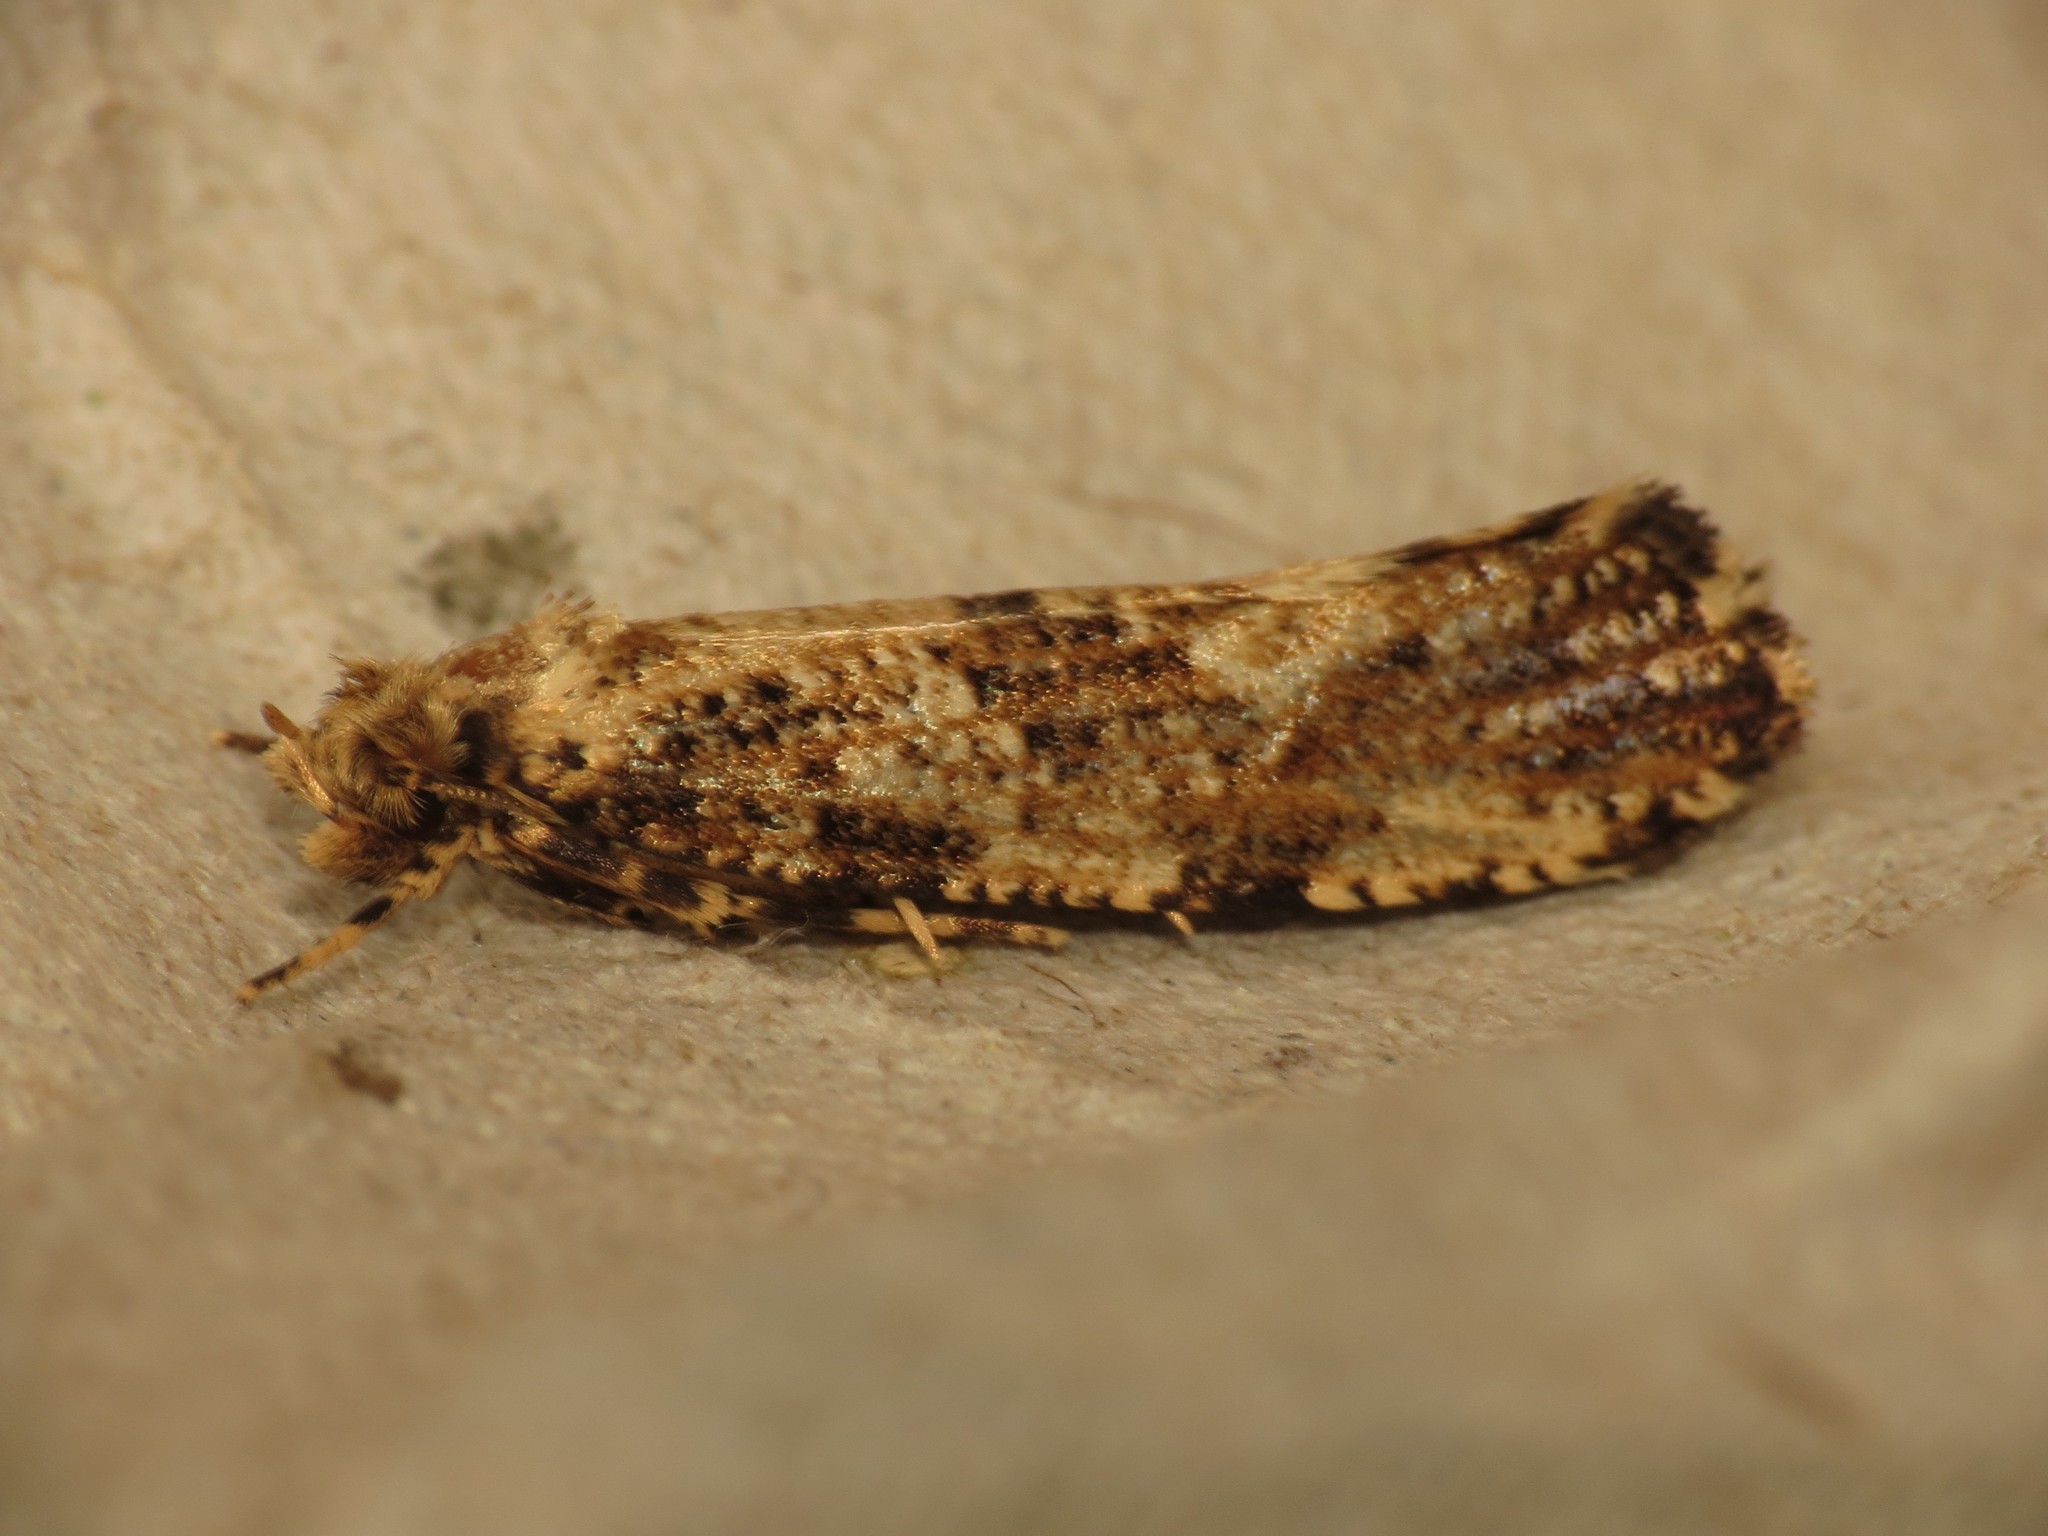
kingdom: Animalia
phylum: Arthropoda
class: Insecta
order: Lepidoptera
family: Tineidae
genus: Morophaga
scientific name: Morophaga choragella
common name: Large clothes
